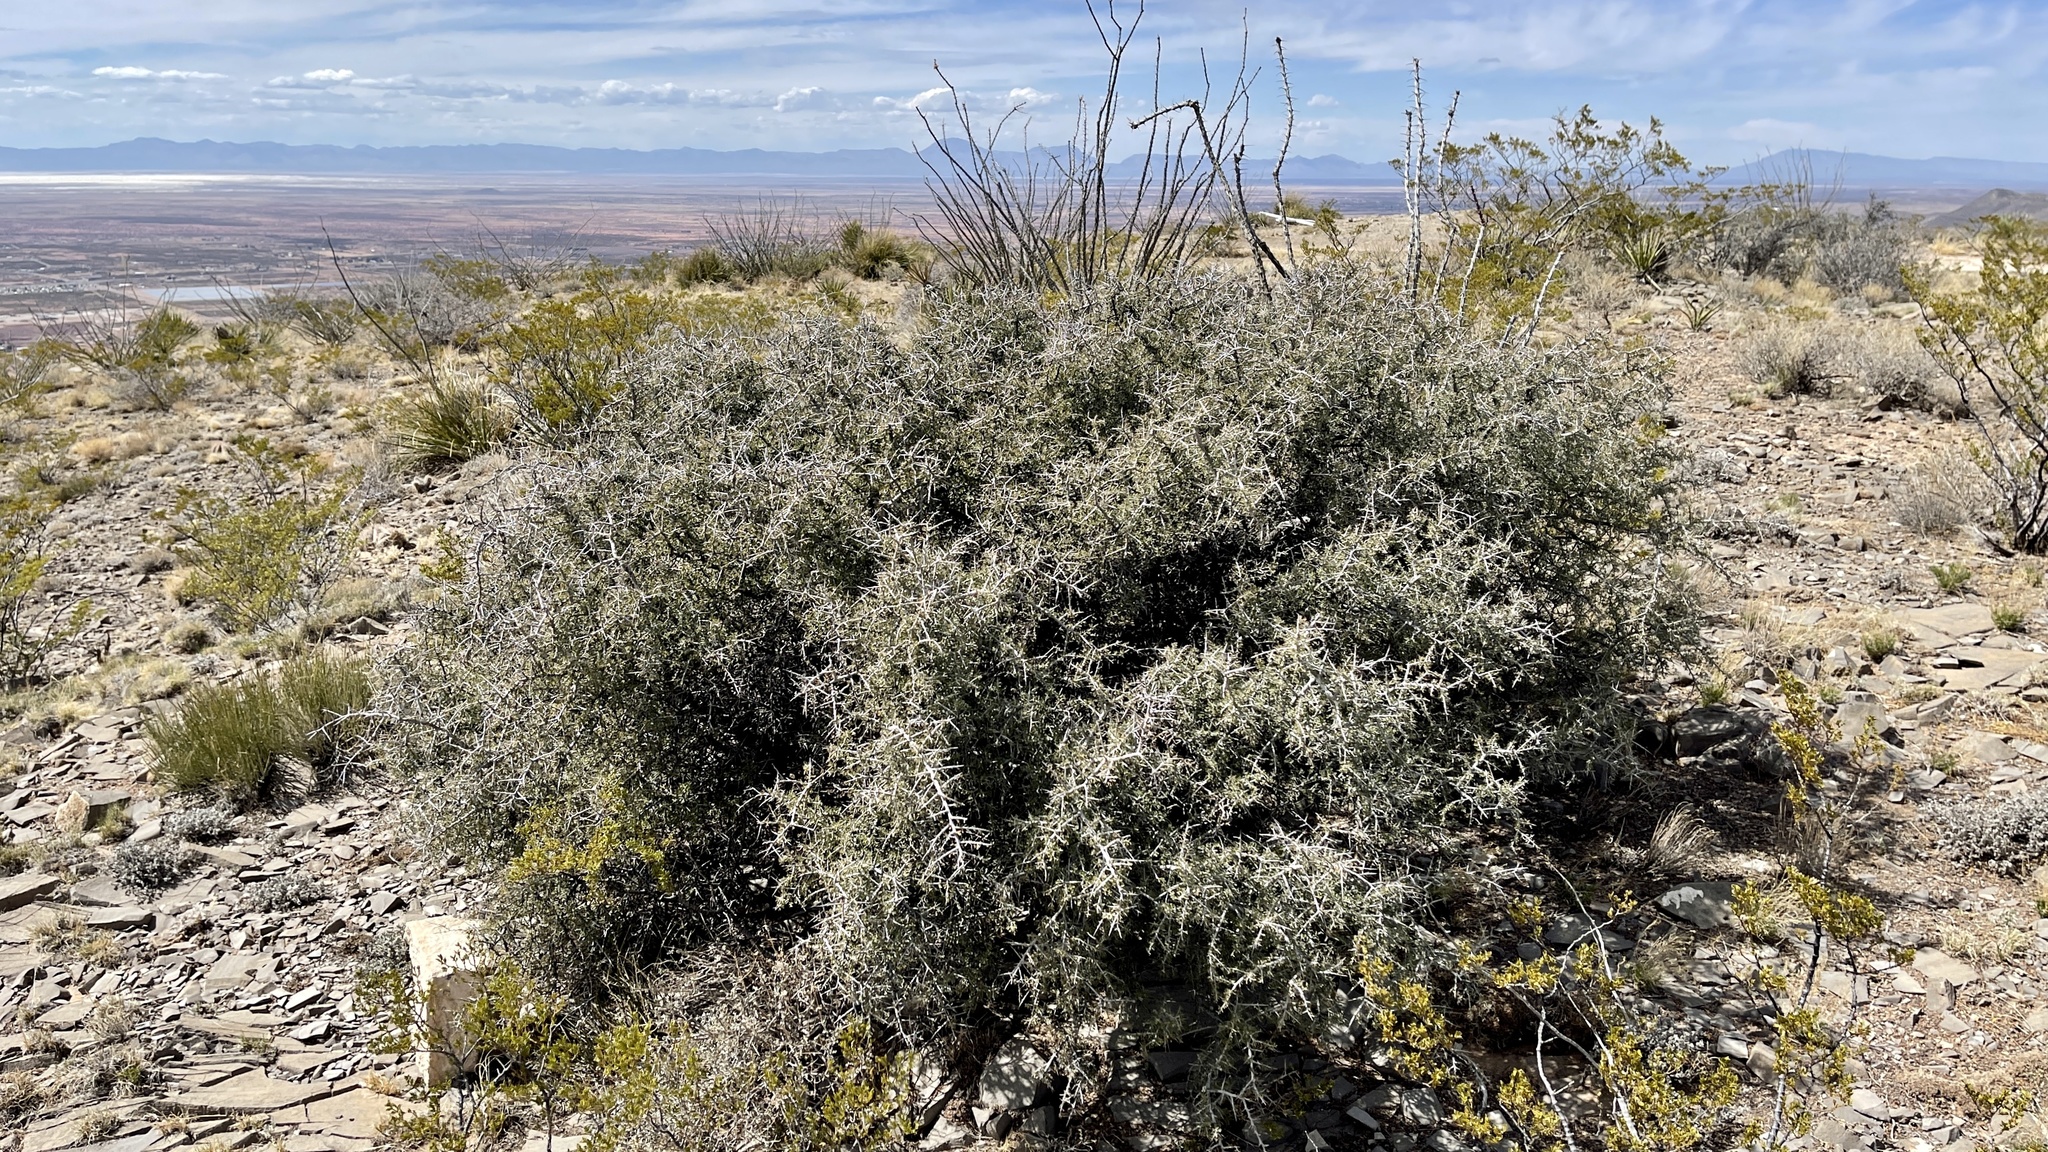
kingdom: Plantae
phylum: Tracheophyta
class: Magnoliopsida
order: Rosales
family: Rhamnaceae
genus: Condalia
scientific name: Condalia warnockii
